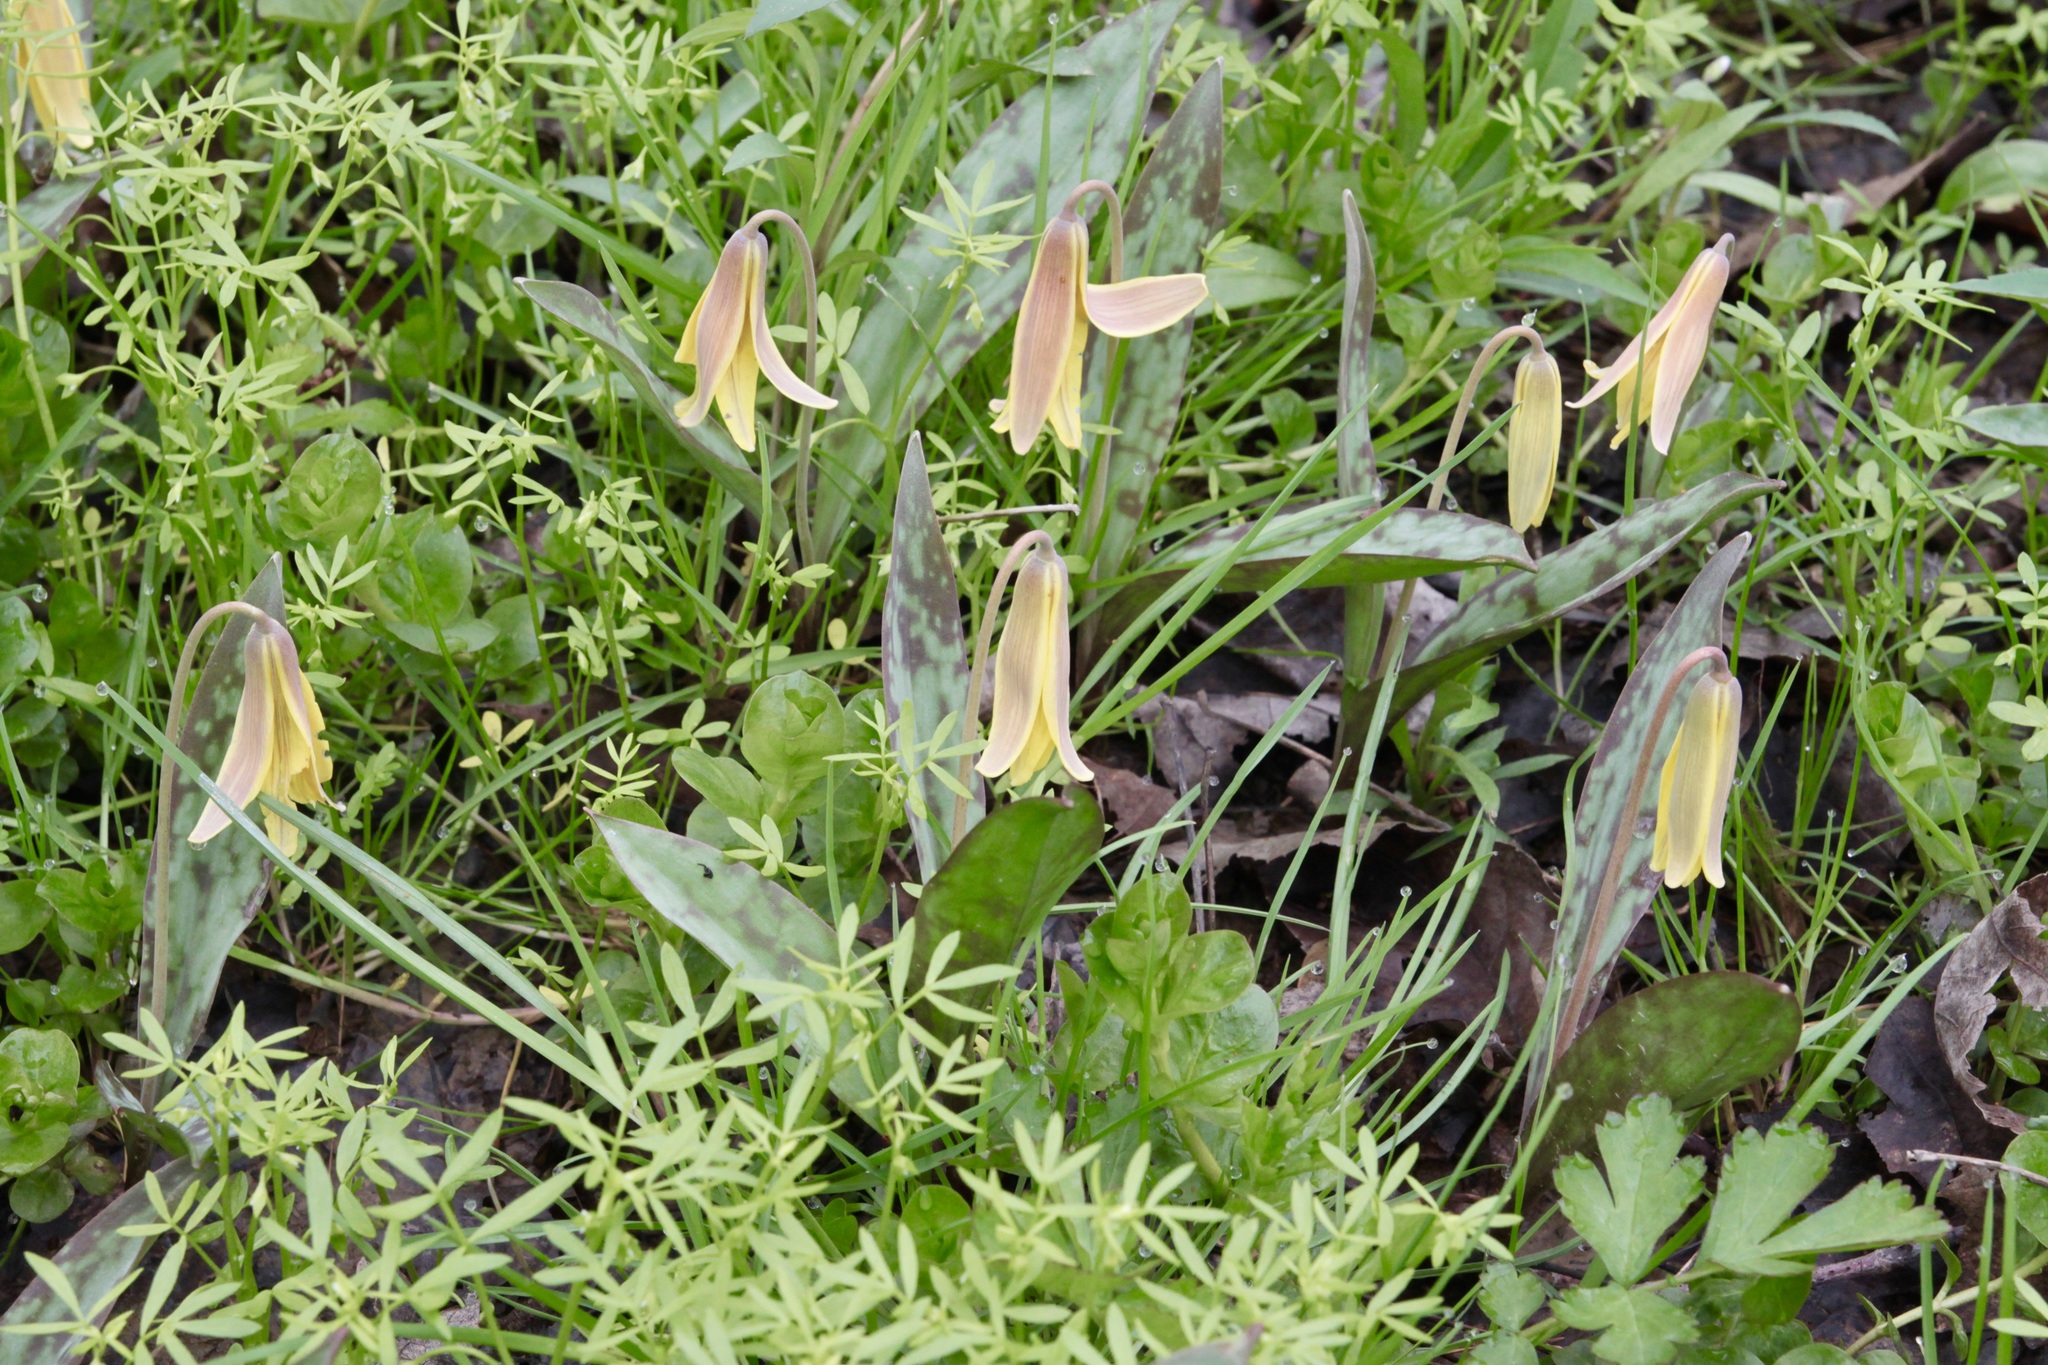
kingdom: Plantae
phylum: Tracheophyta
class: Liliopsida
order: Liliales
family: Liliaceae
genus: Erythronium
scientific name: Erythronium americanum
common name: Yellow adder's-tongue
